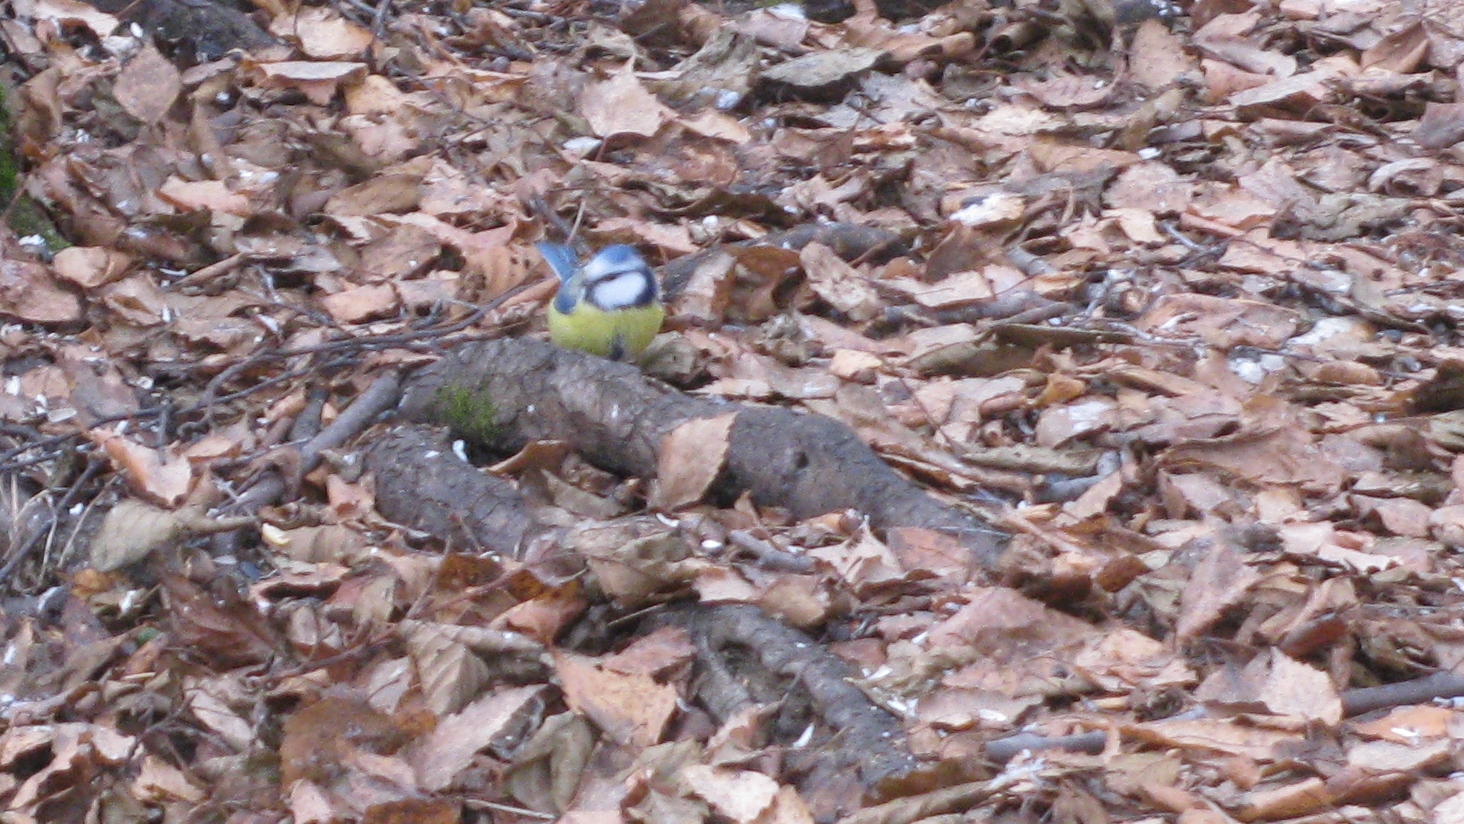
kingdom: Animalia
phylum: Chordata
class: Aves
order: Passeriformes
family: Paridae
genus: Cyanistes
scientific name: Cyanistes caeruleus
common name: Eurasian blue tit
